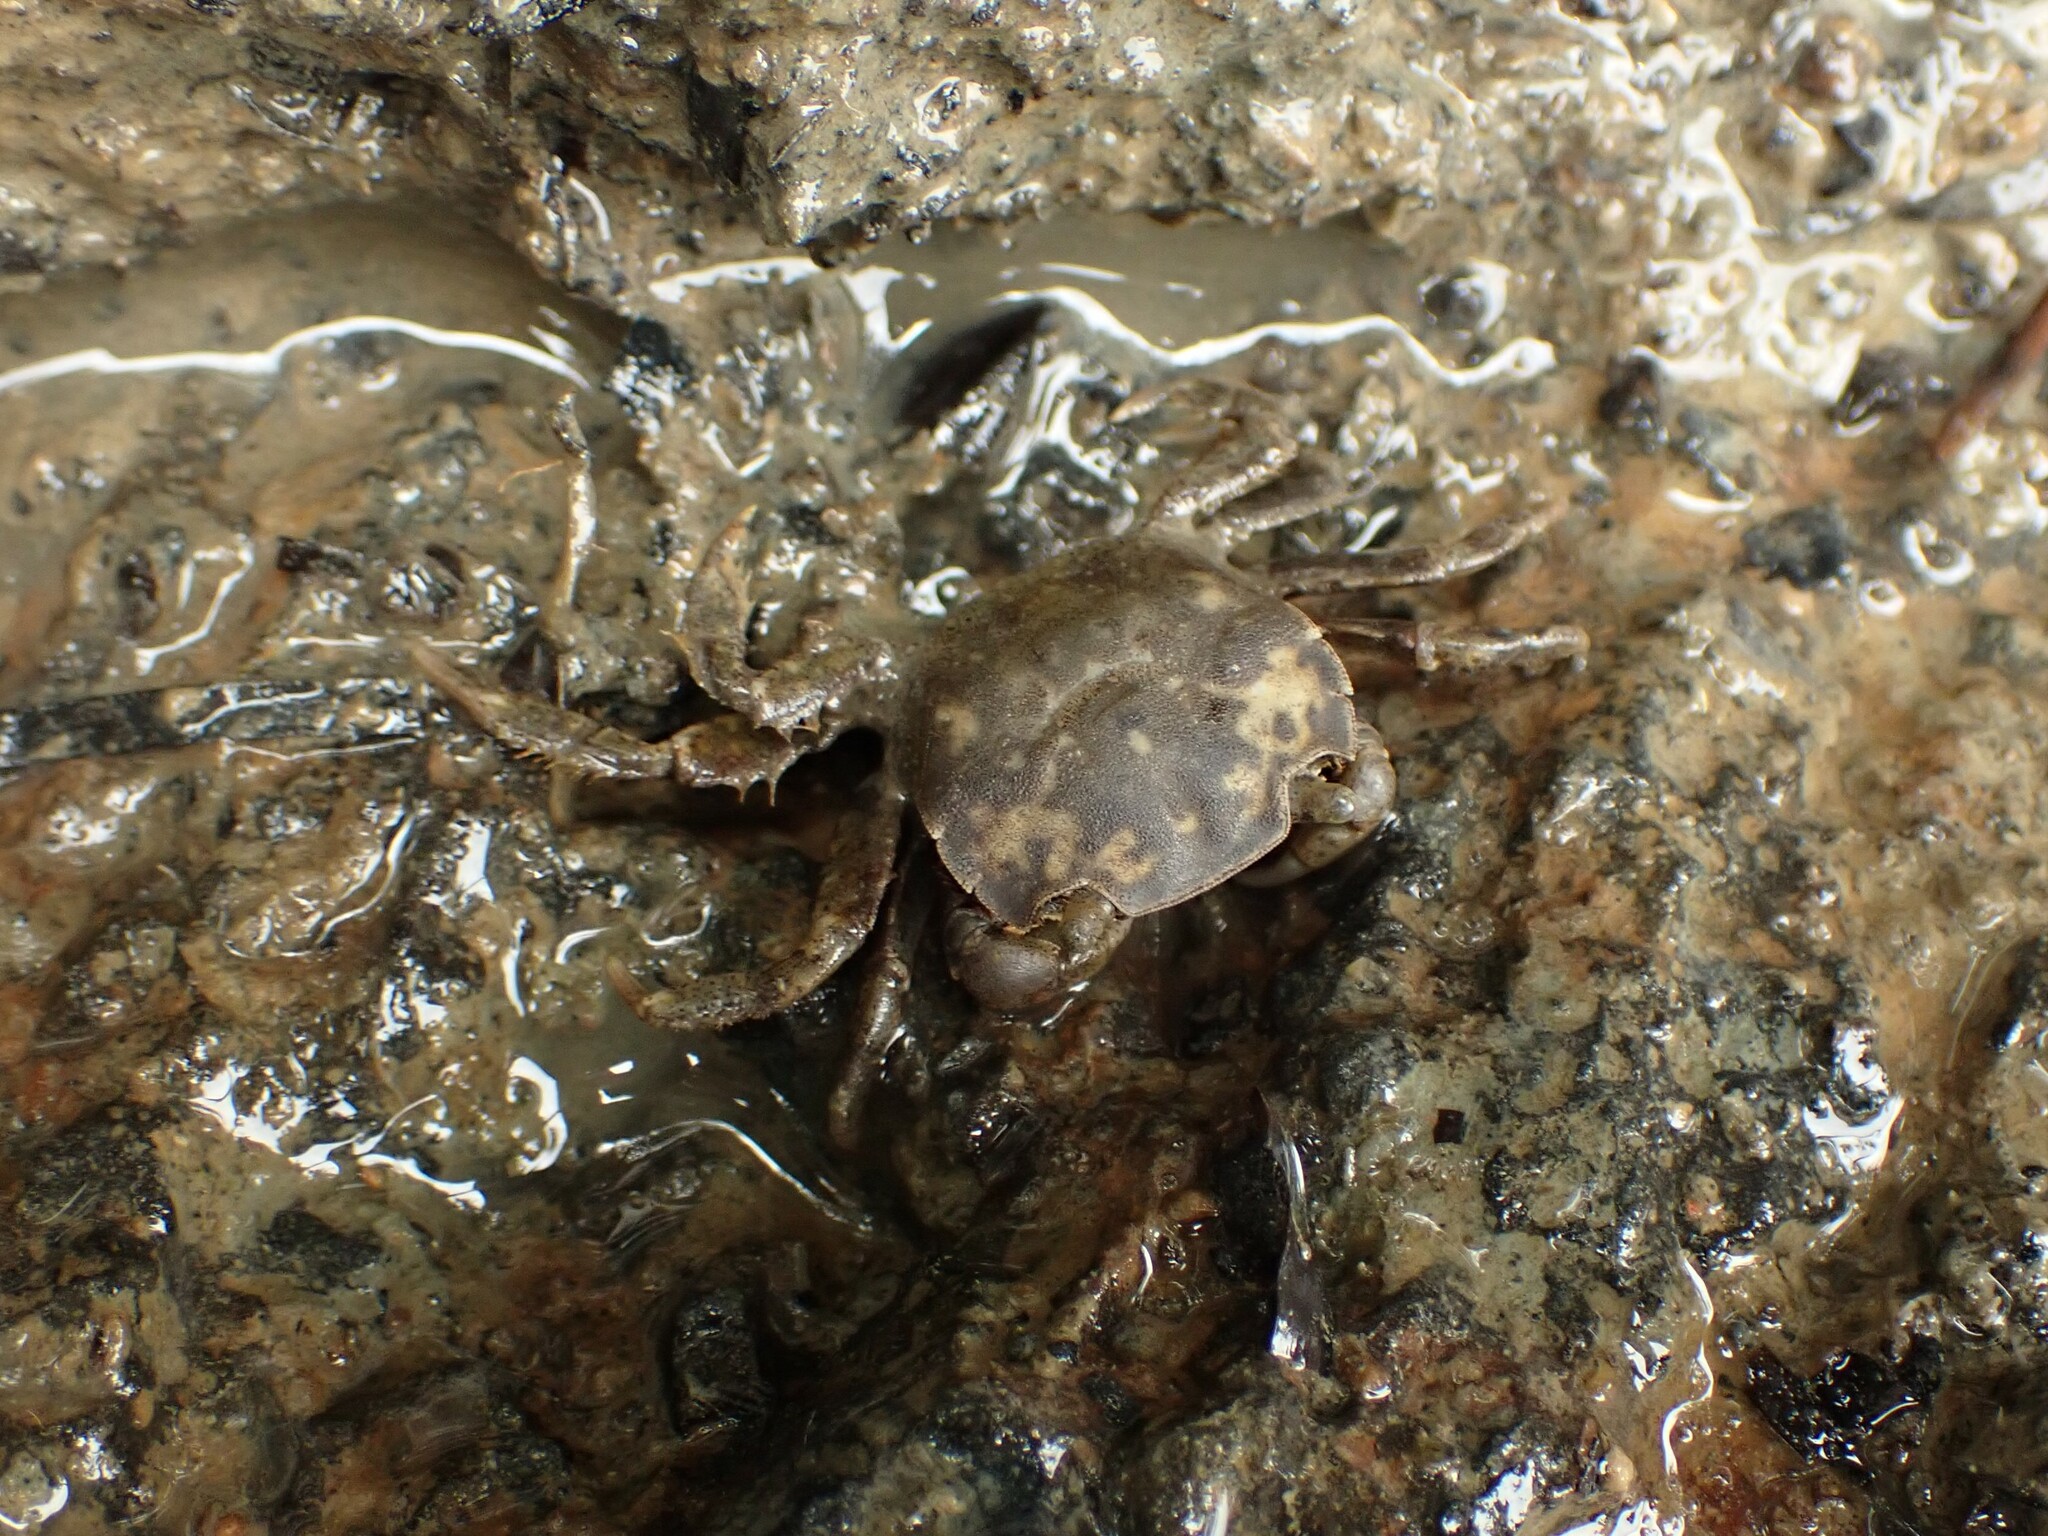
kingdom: Animalia
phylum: Arthropoda
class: Malacostraca
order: Decapoda
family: Varunidae
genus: Hemigrapsus
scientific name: Hemigrapsus crenulatus
